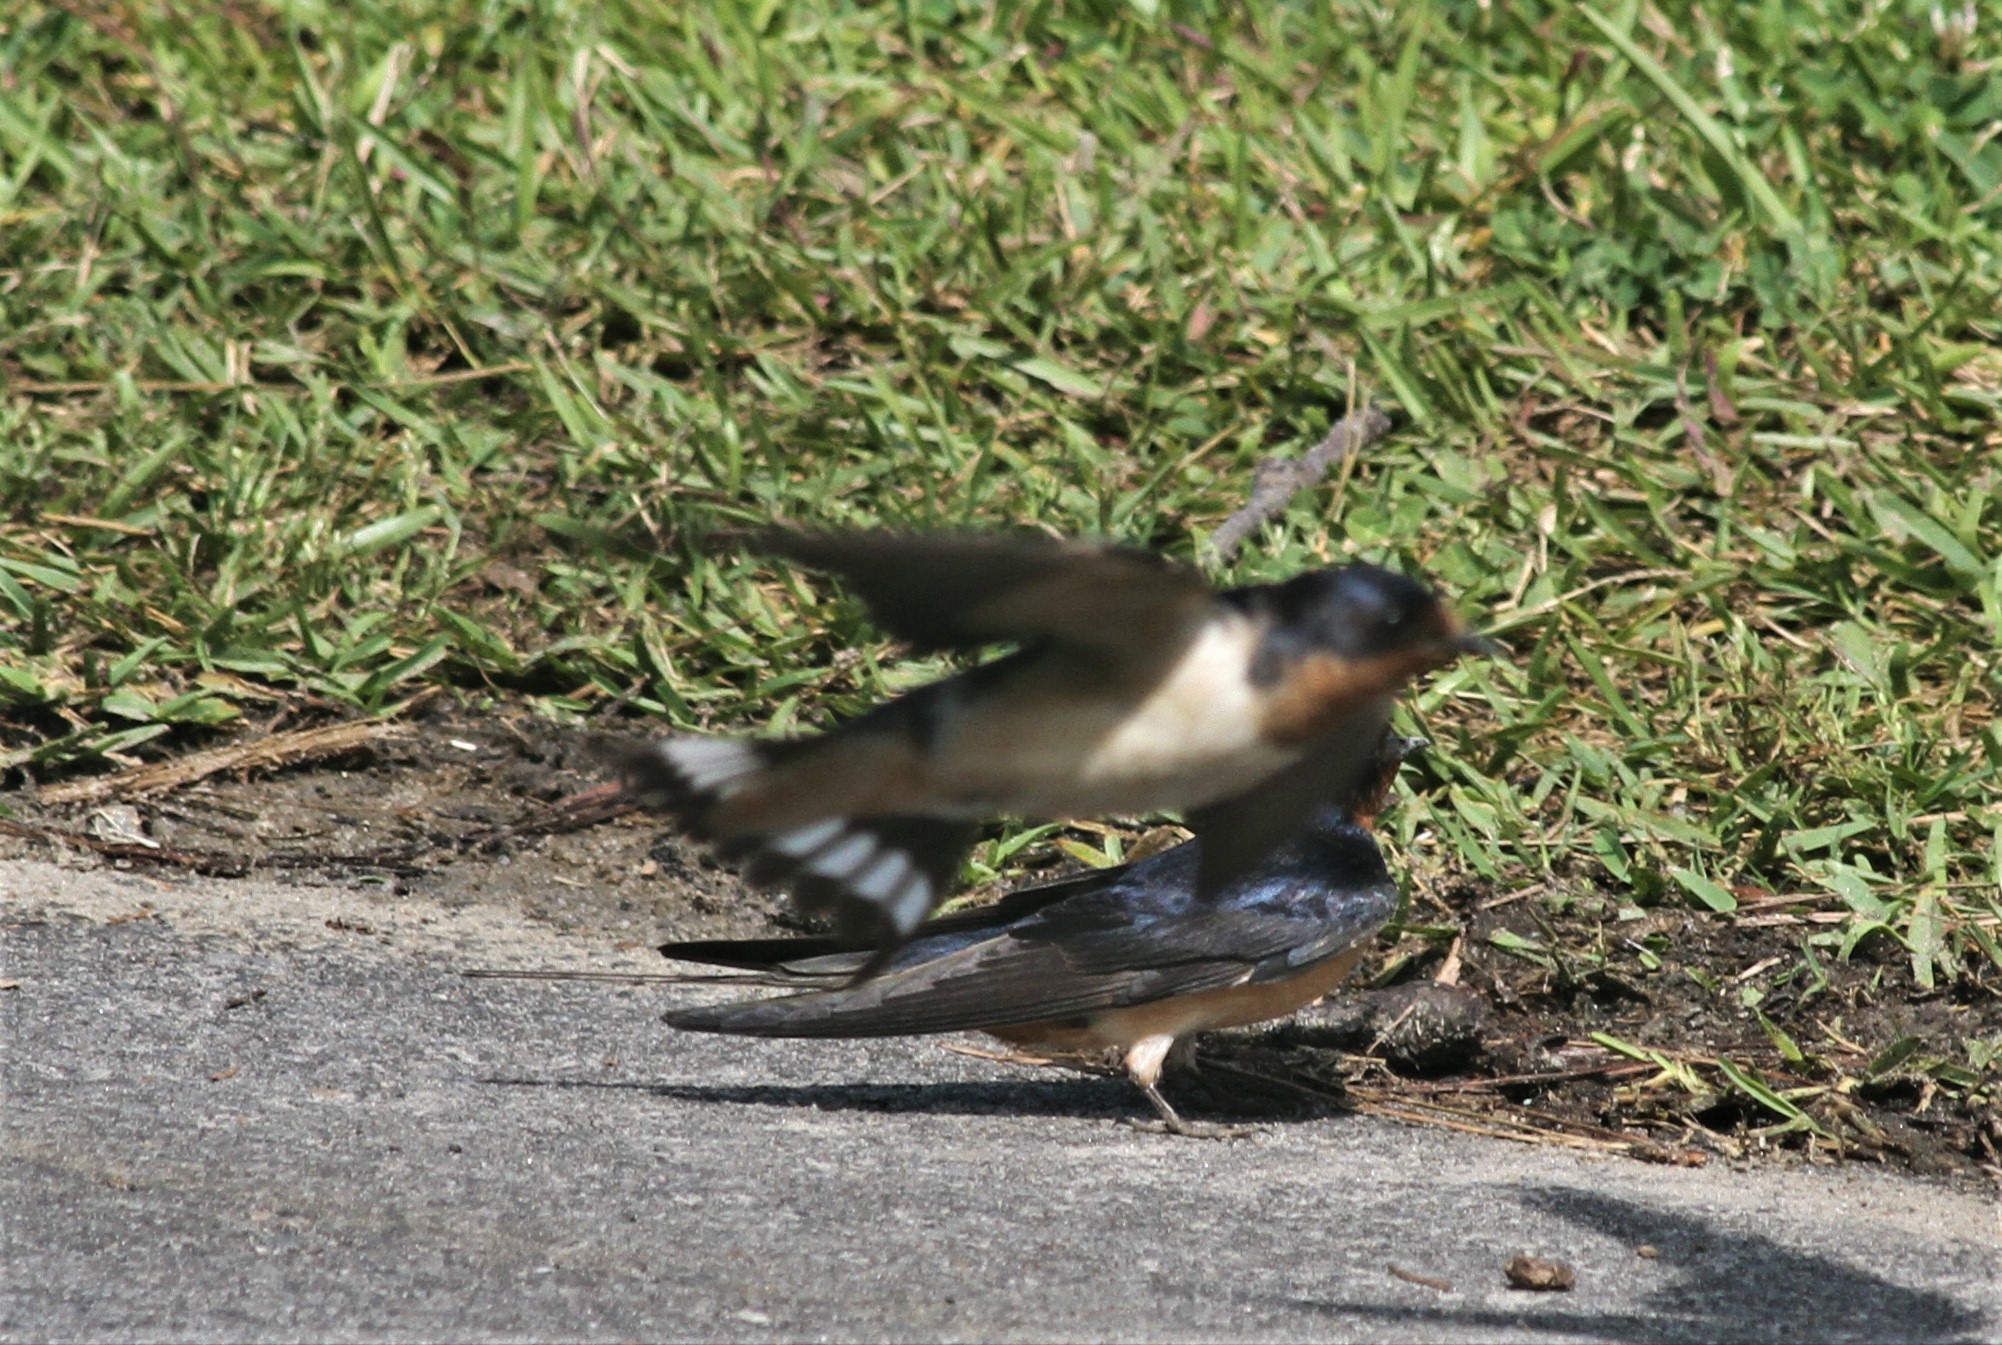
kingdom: Animalia
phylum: Chordata
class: Aves
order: Passeriformes
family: Hirundinidae
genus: Hirundo
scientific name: Hirundo rustica
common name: Barn swallow
